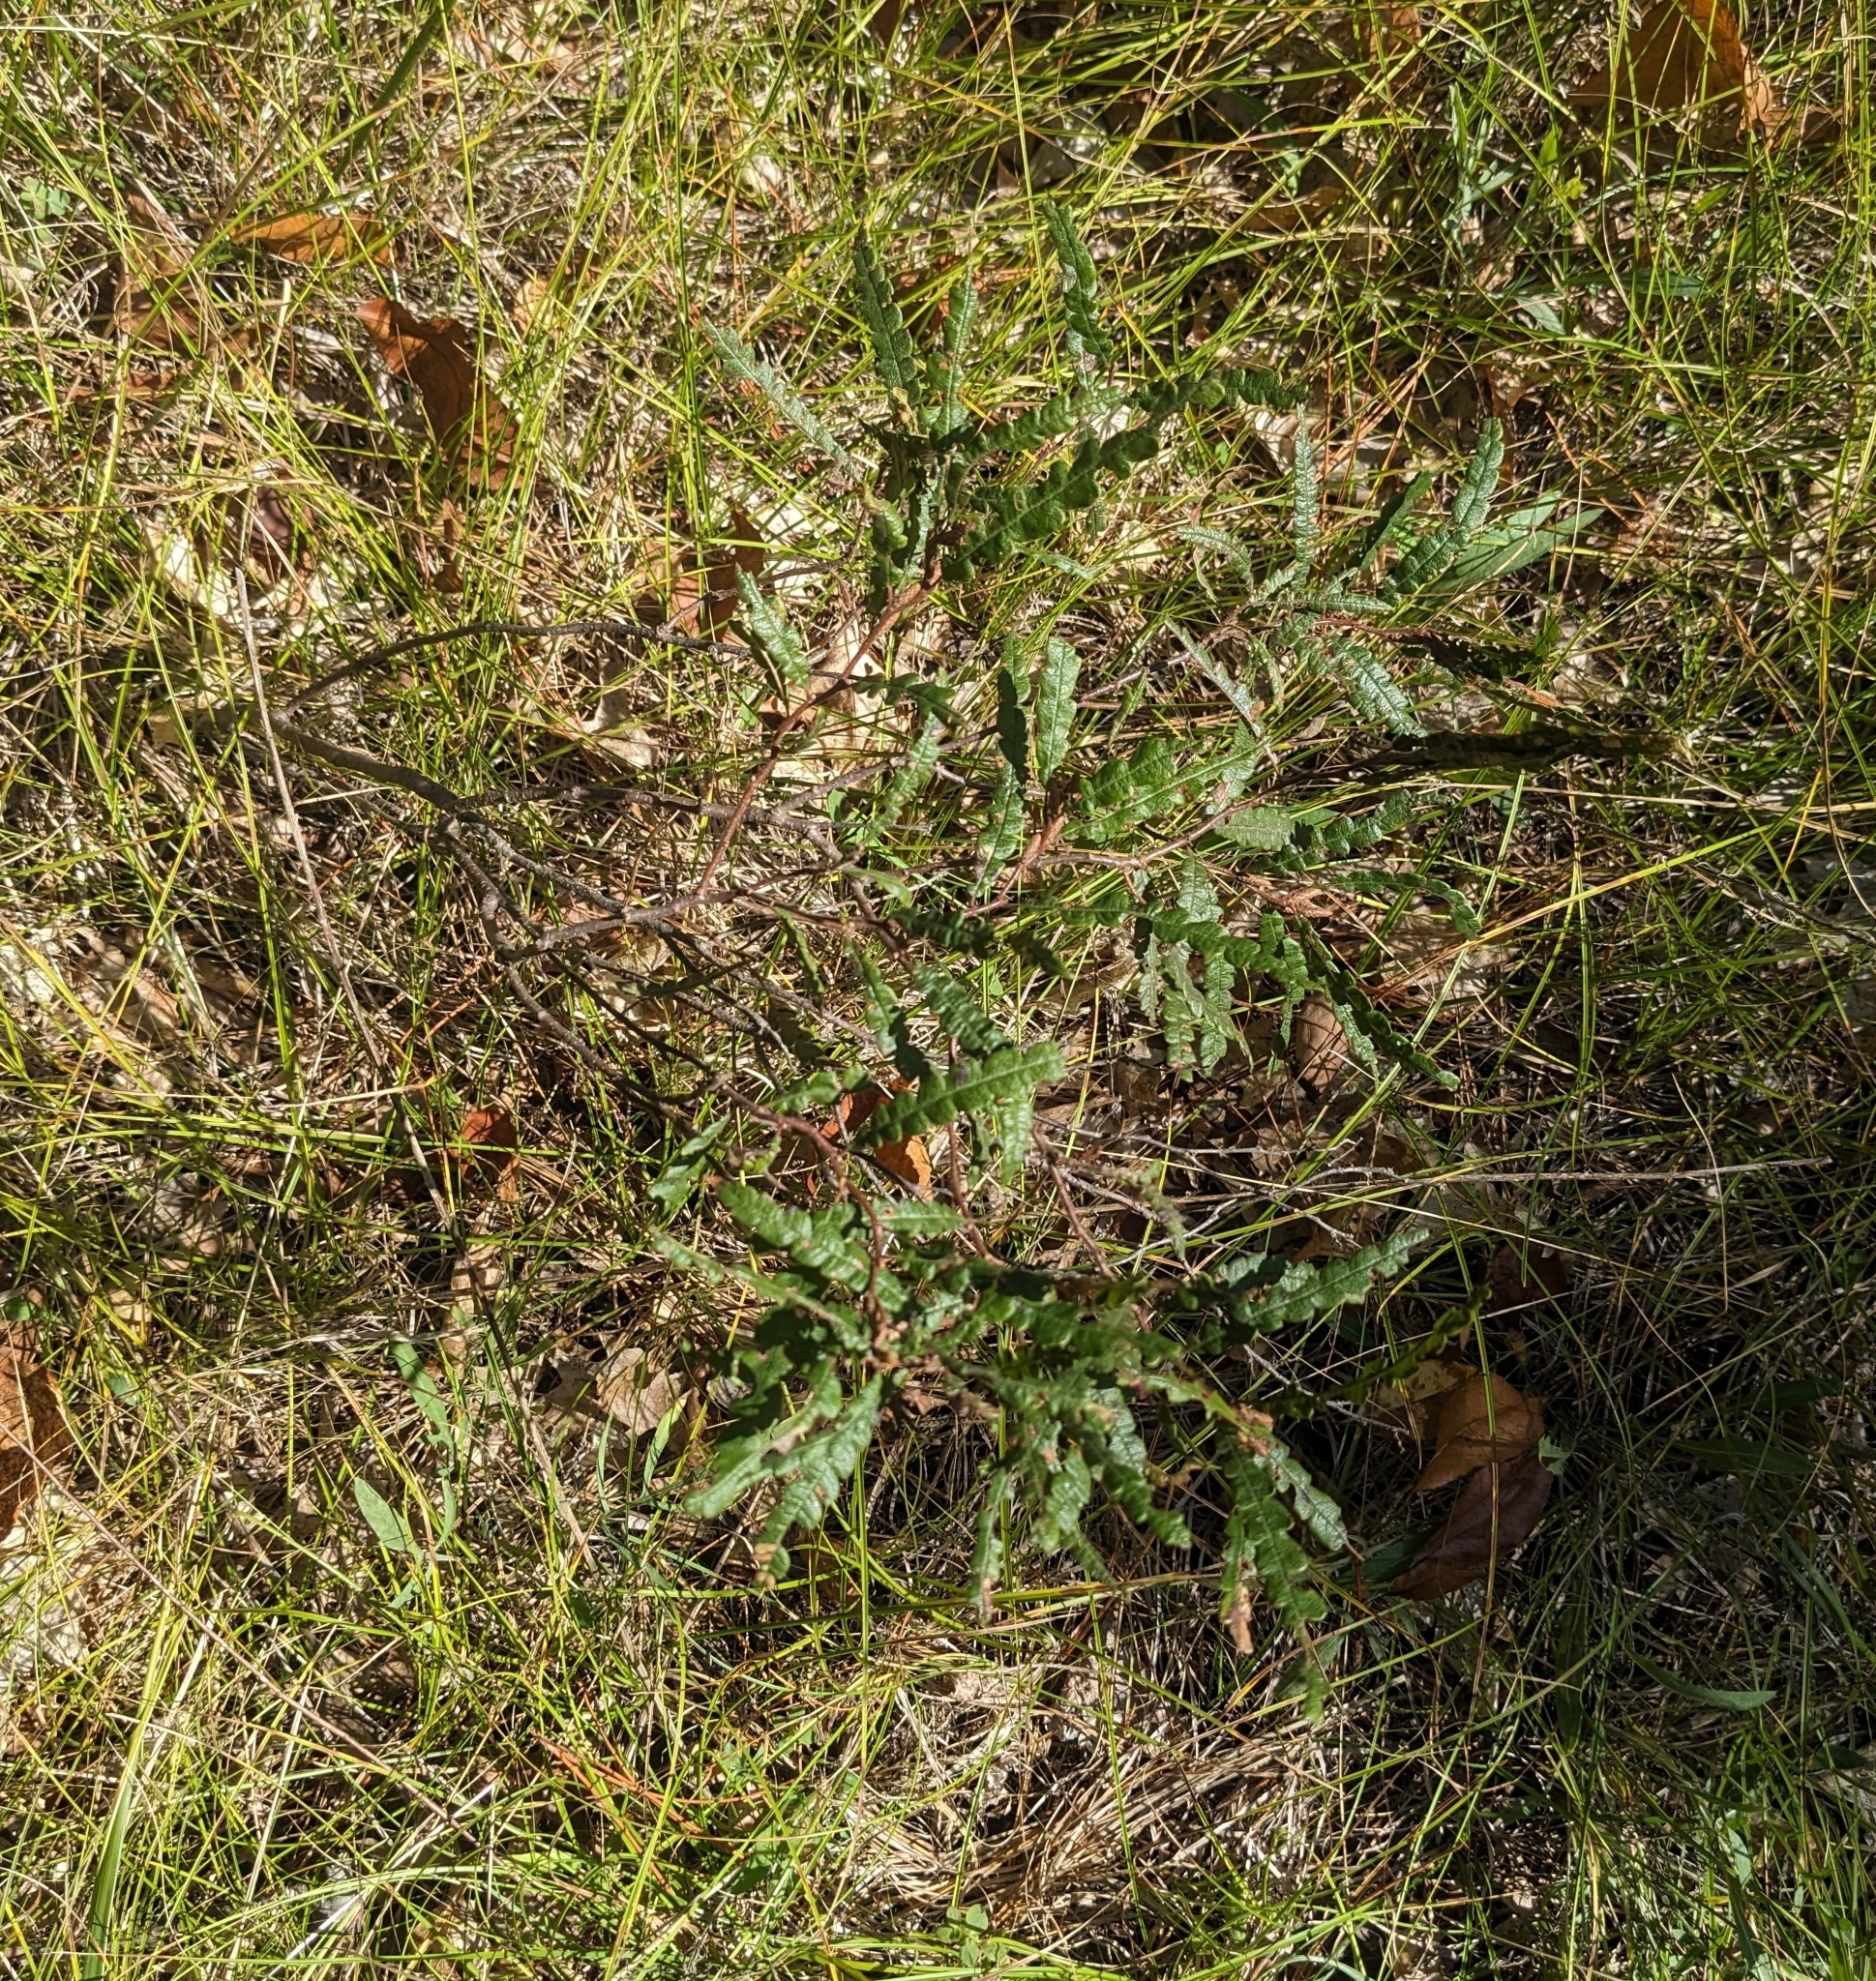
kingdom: Plantae
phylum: Tracheophyta
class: Magnoliopsida
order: Fagales
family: Myricaceae
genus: Comptonia
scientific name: Comptonia peregrina
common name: Sweet-fern
